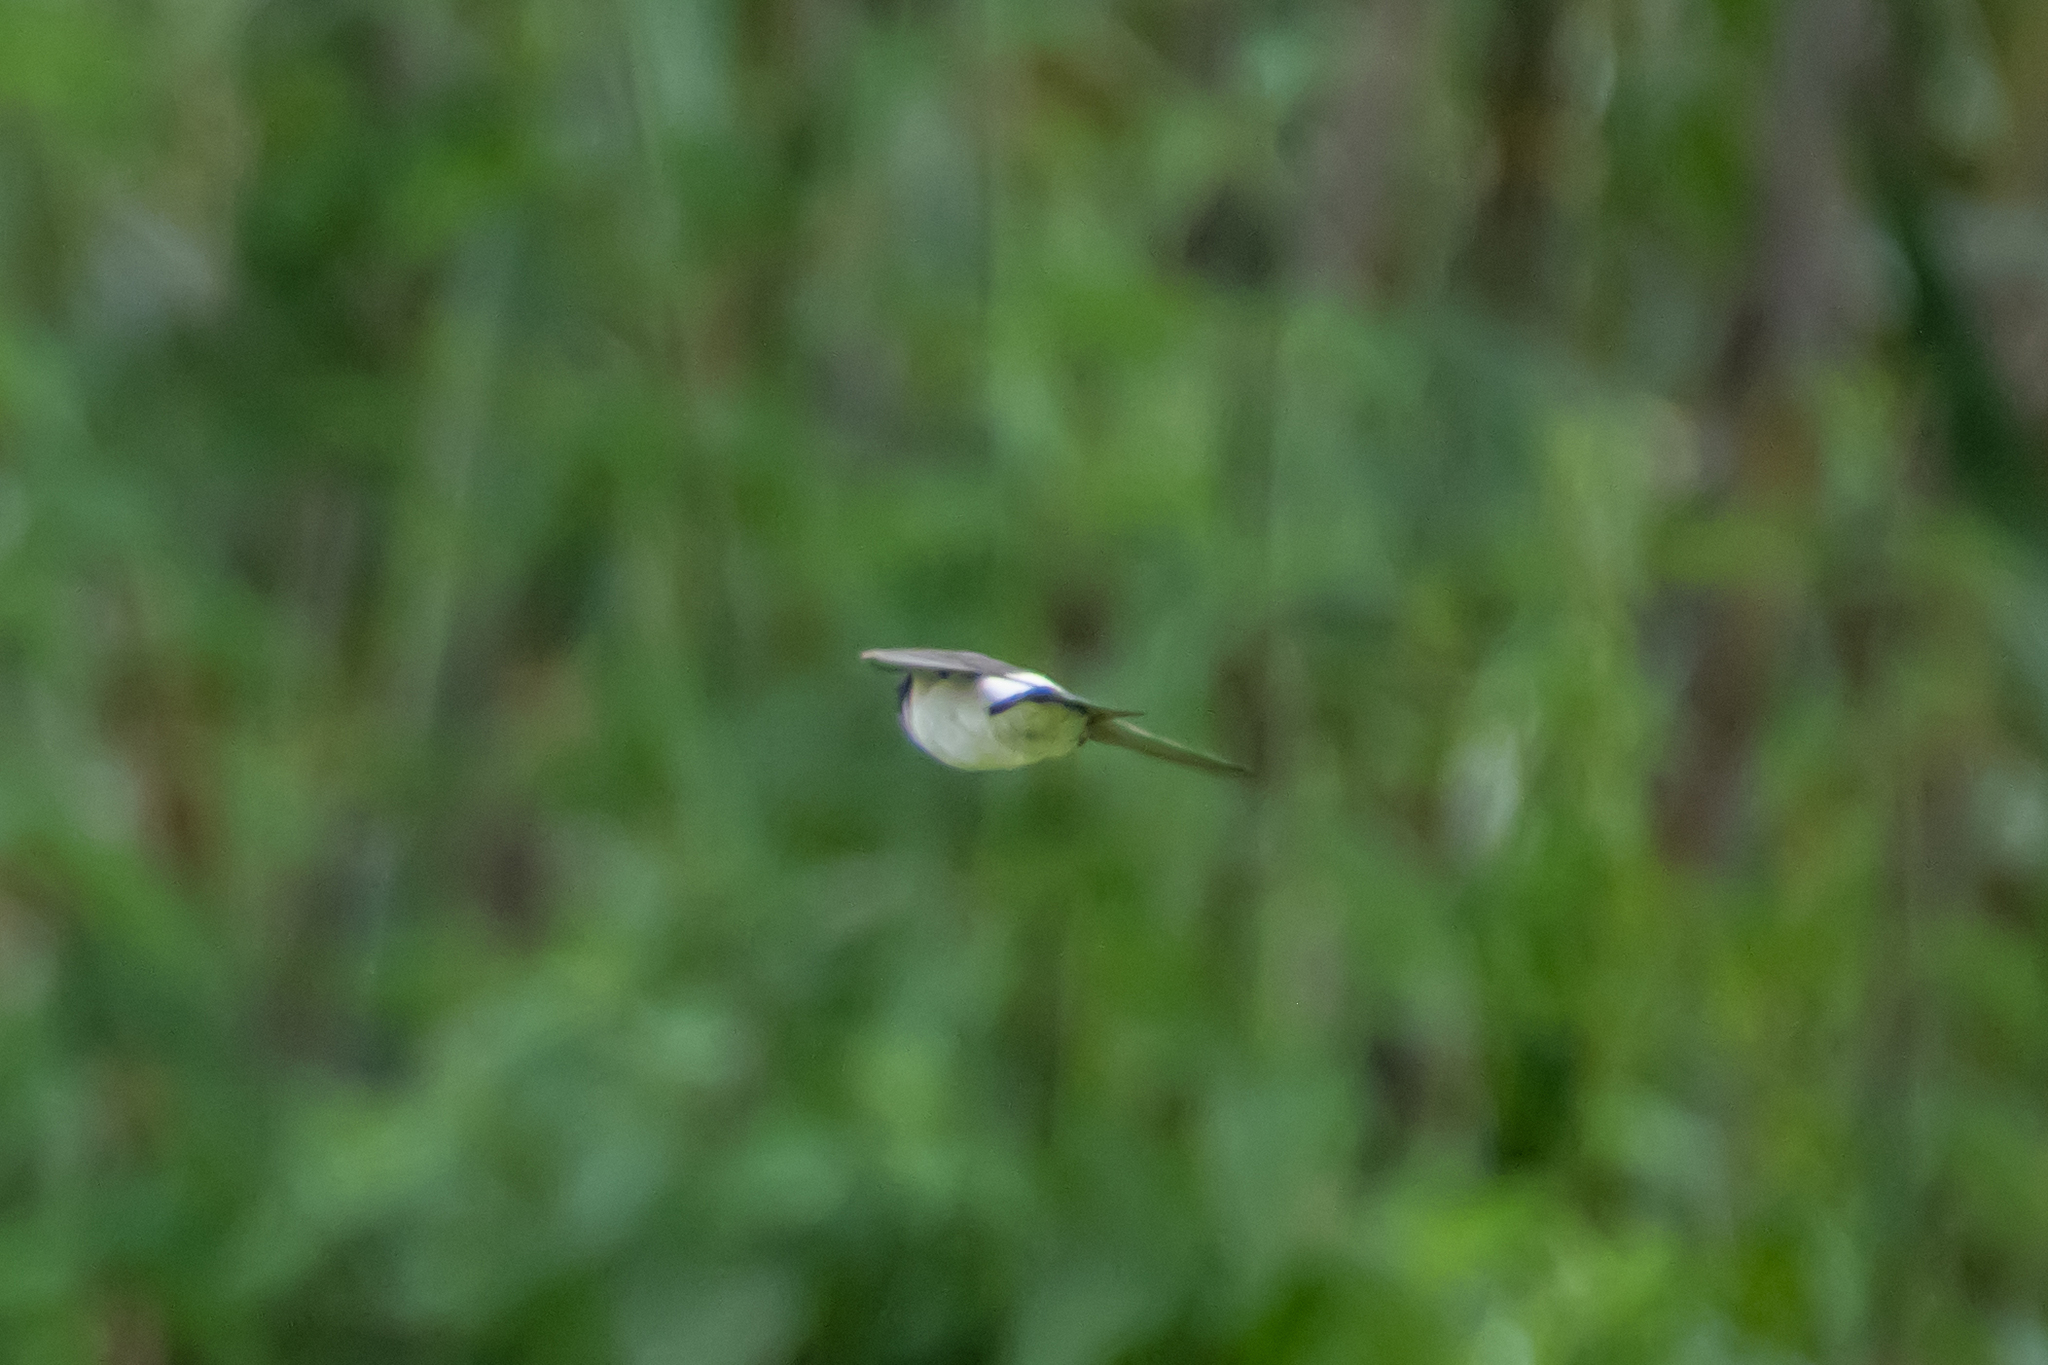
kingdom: Animalia
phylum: Chordata
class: Aves
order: Passeriformes
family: Hirundinidae
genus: Delichon
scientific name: Delichon urbicum
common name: Common house martin
